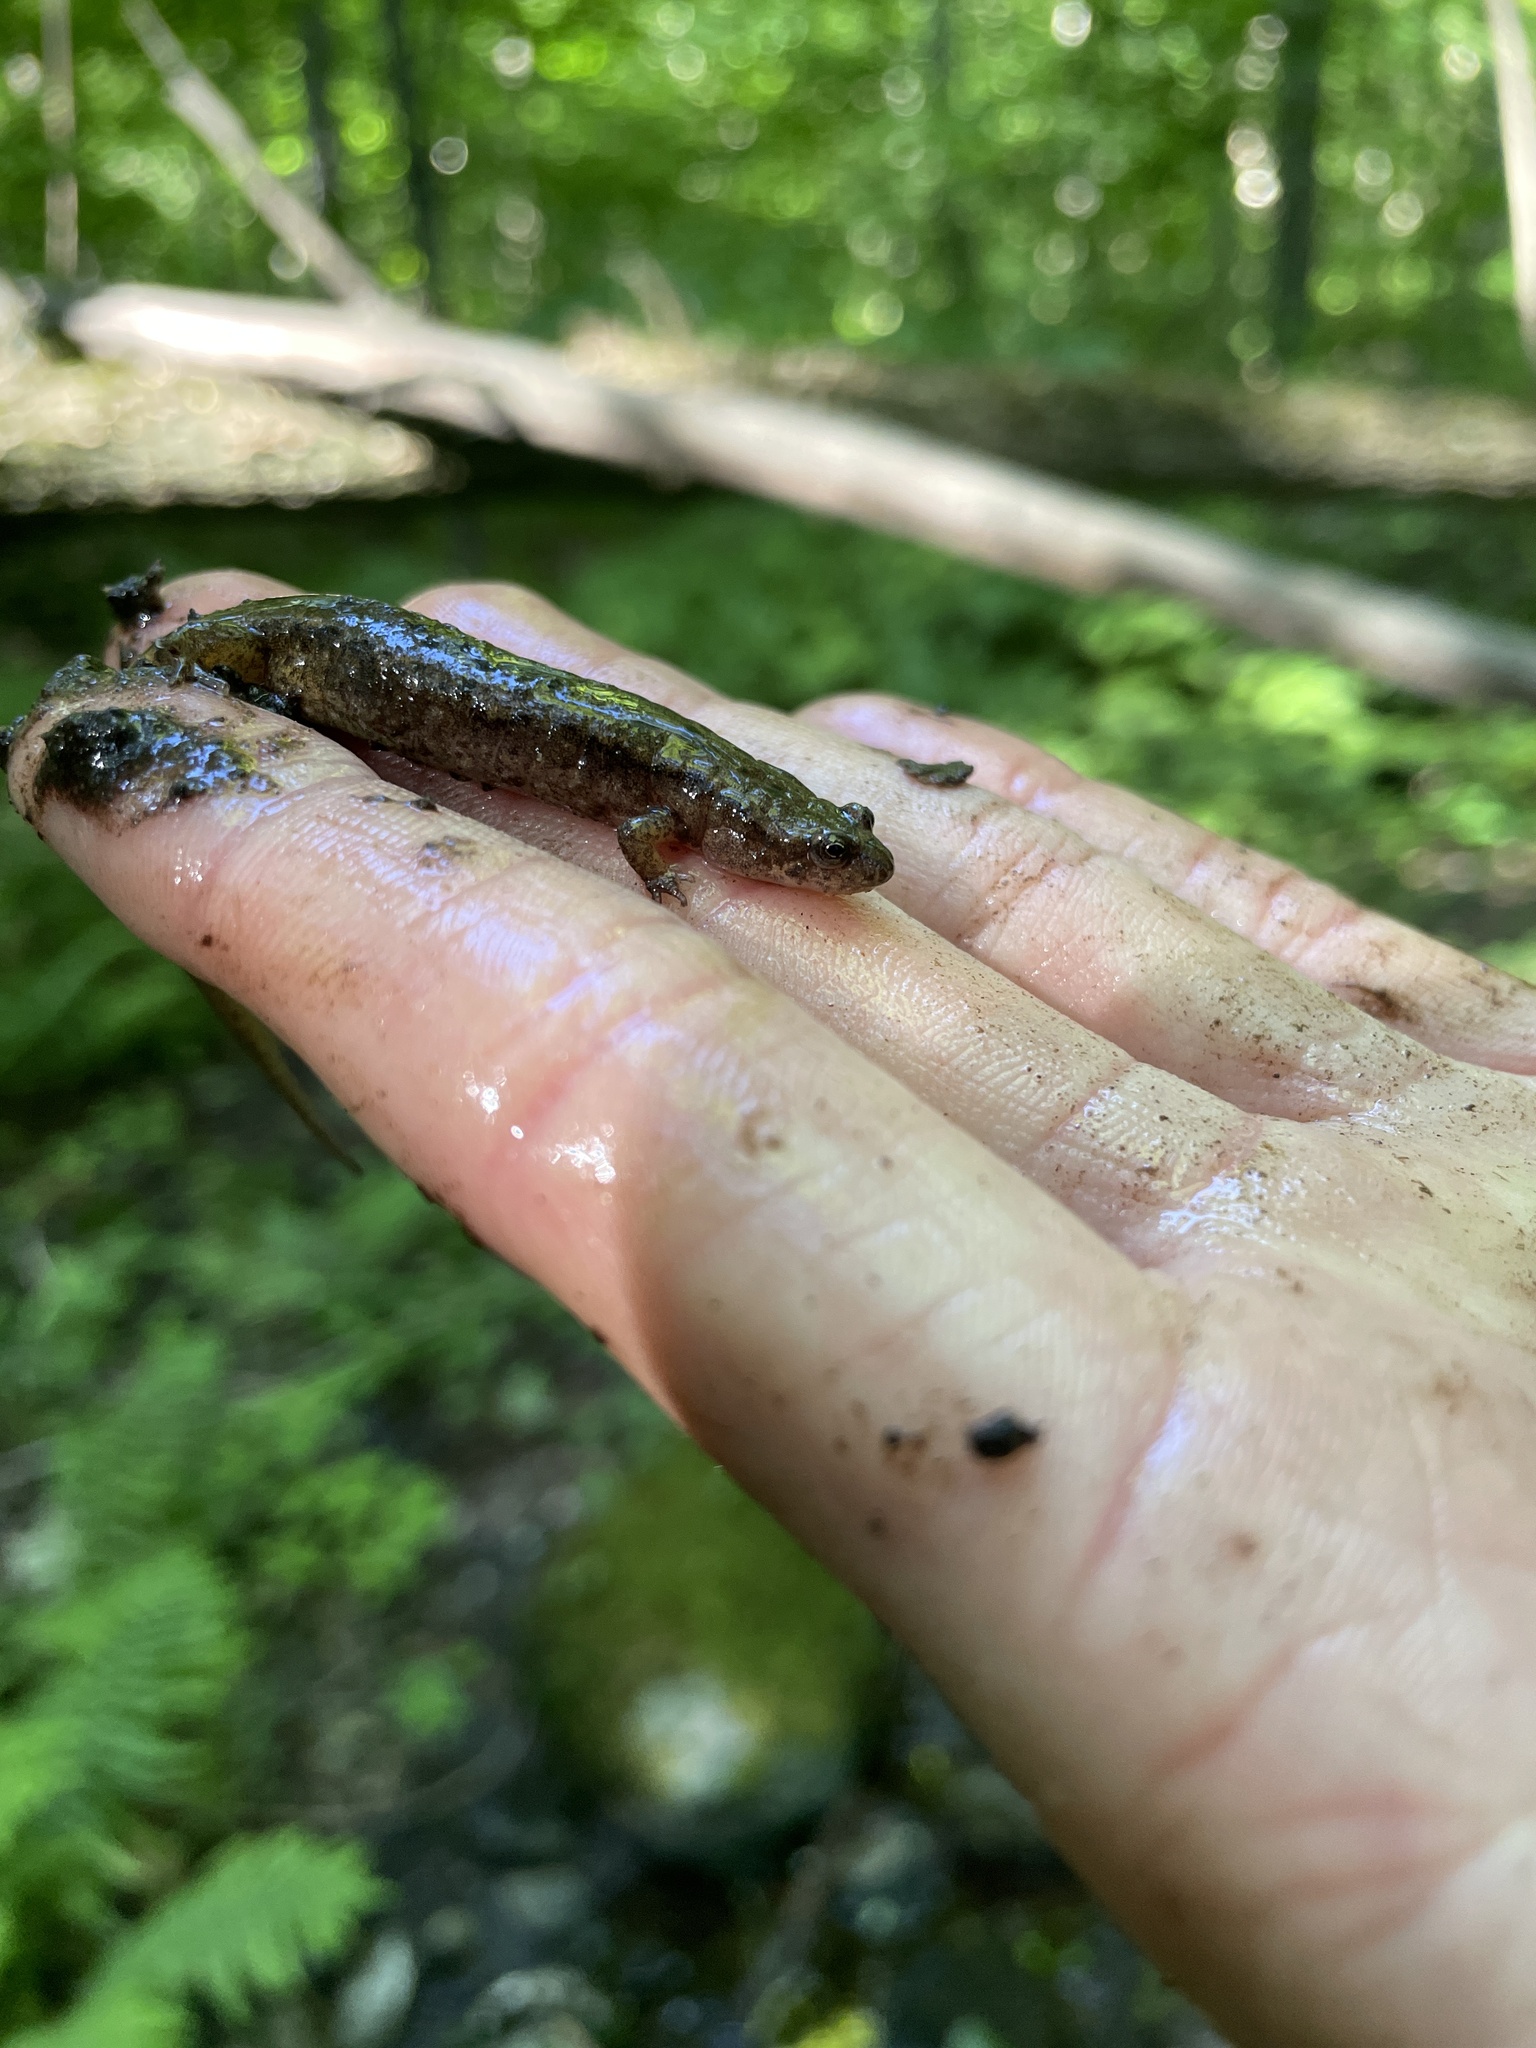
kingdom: Animalia
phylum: Chordata
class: Amphibia
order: Caudata
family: Plethodontidae
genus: Desmognathus
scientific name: Desmognathus fuscus
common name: Northern dusky salamander
